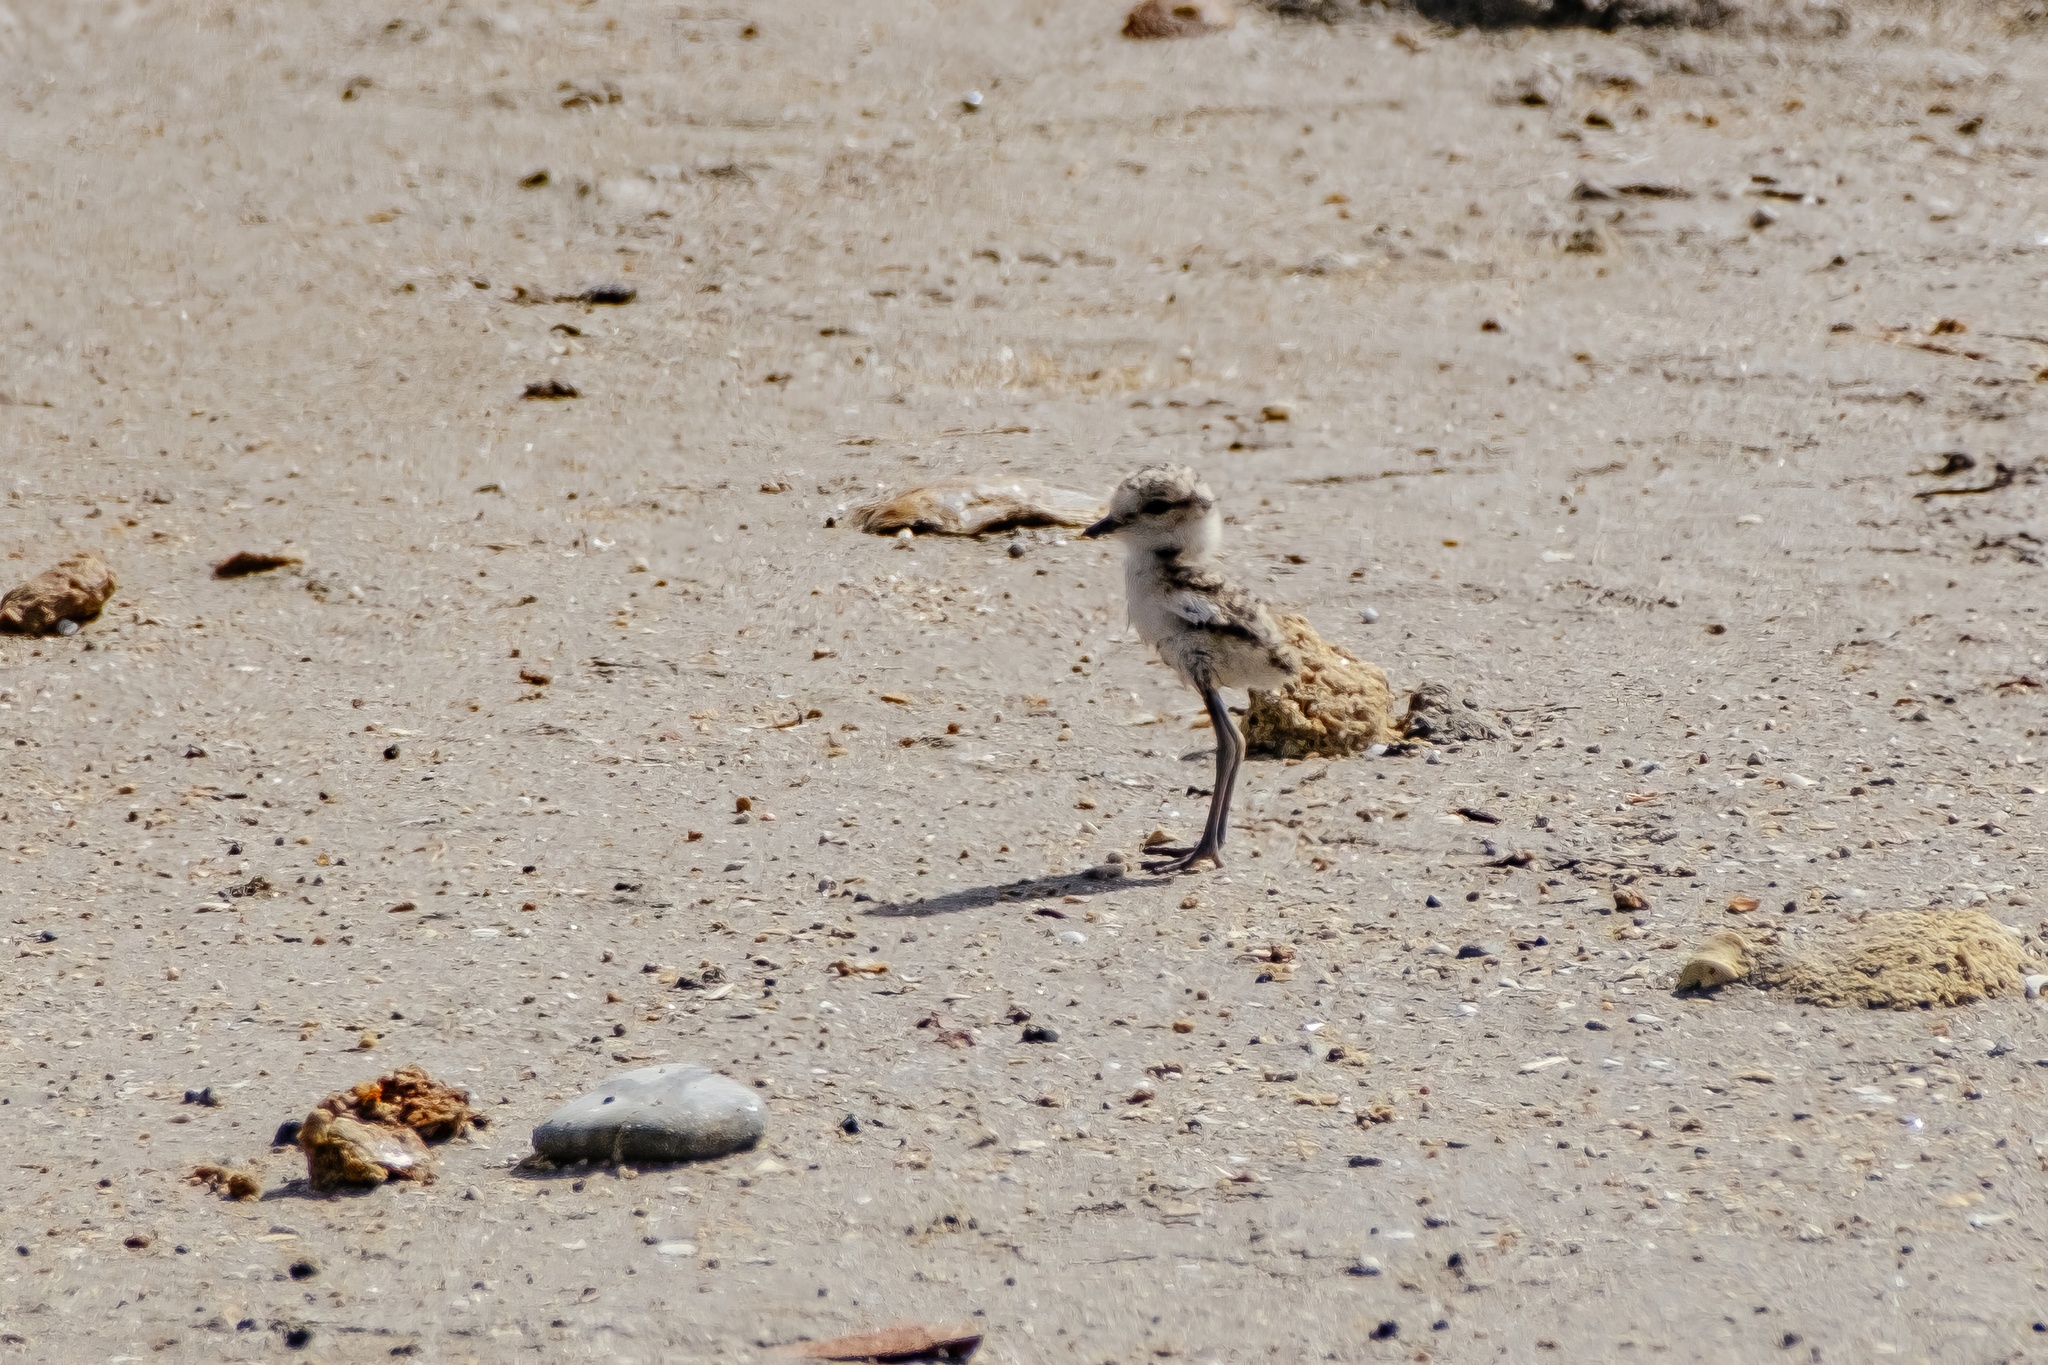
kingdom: Animalia
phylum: Chordata
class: Aves
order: Charadriiformes
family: Charadriidae
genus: Charadrius
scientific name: Charadrius alexandrinus
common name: Kentish plover
